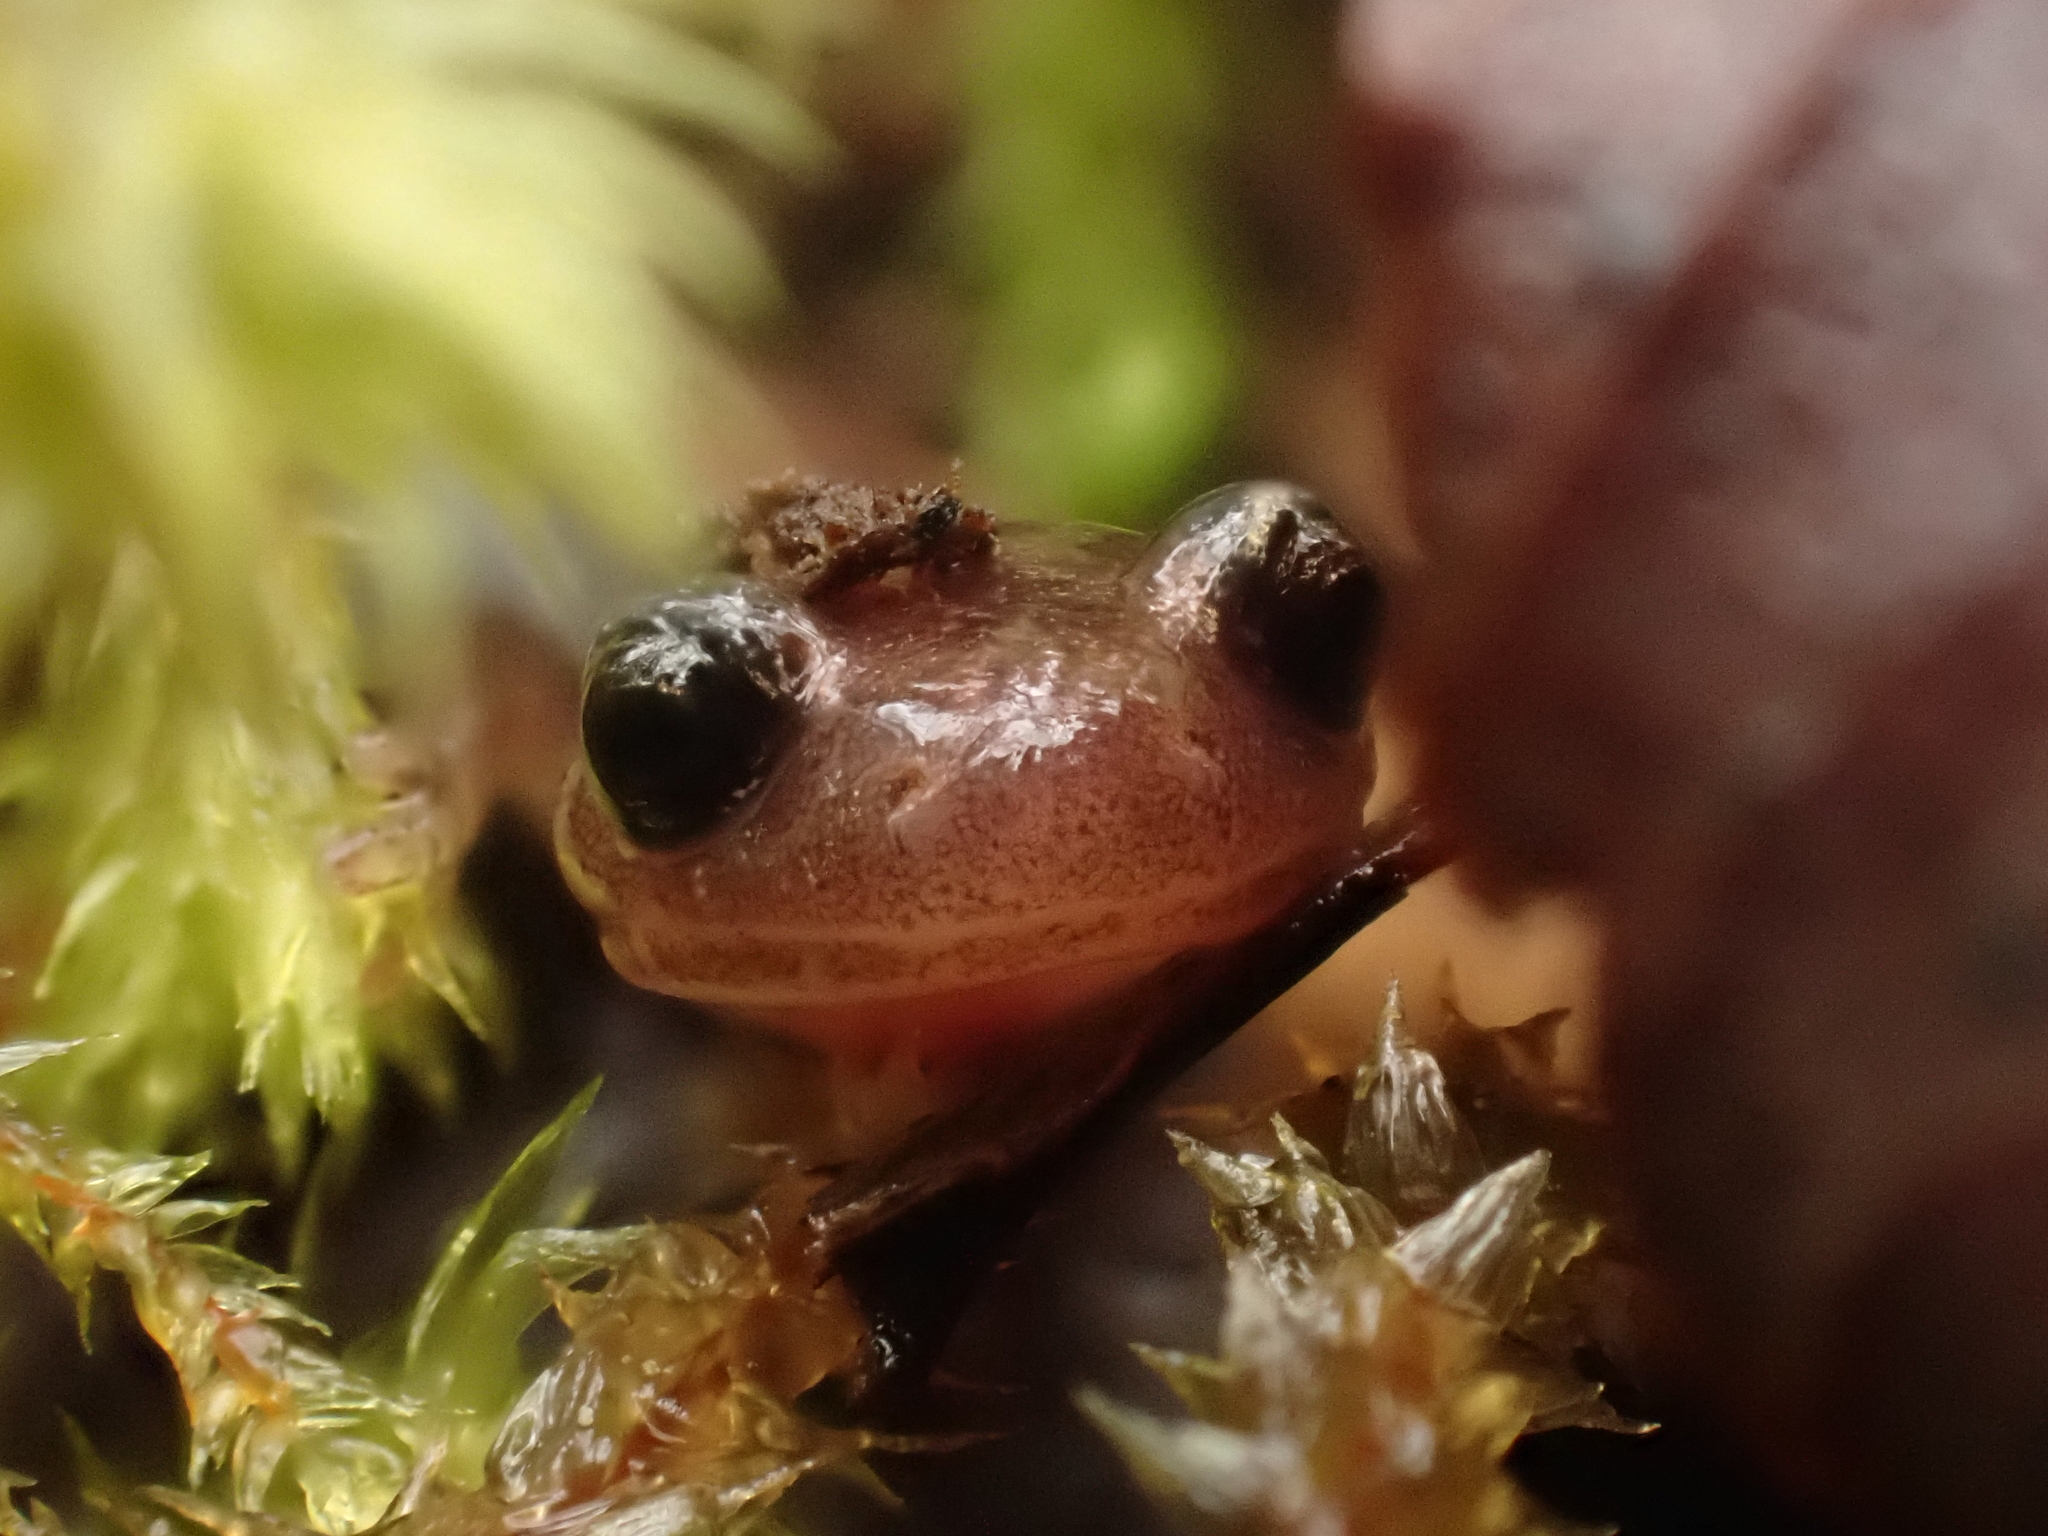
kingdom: Animalia
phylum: Chordata
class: Amphibia
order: Caudata
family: Plethodontidae
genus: Plethodon
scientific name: Plethodon cinereus
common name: Redback salamander
